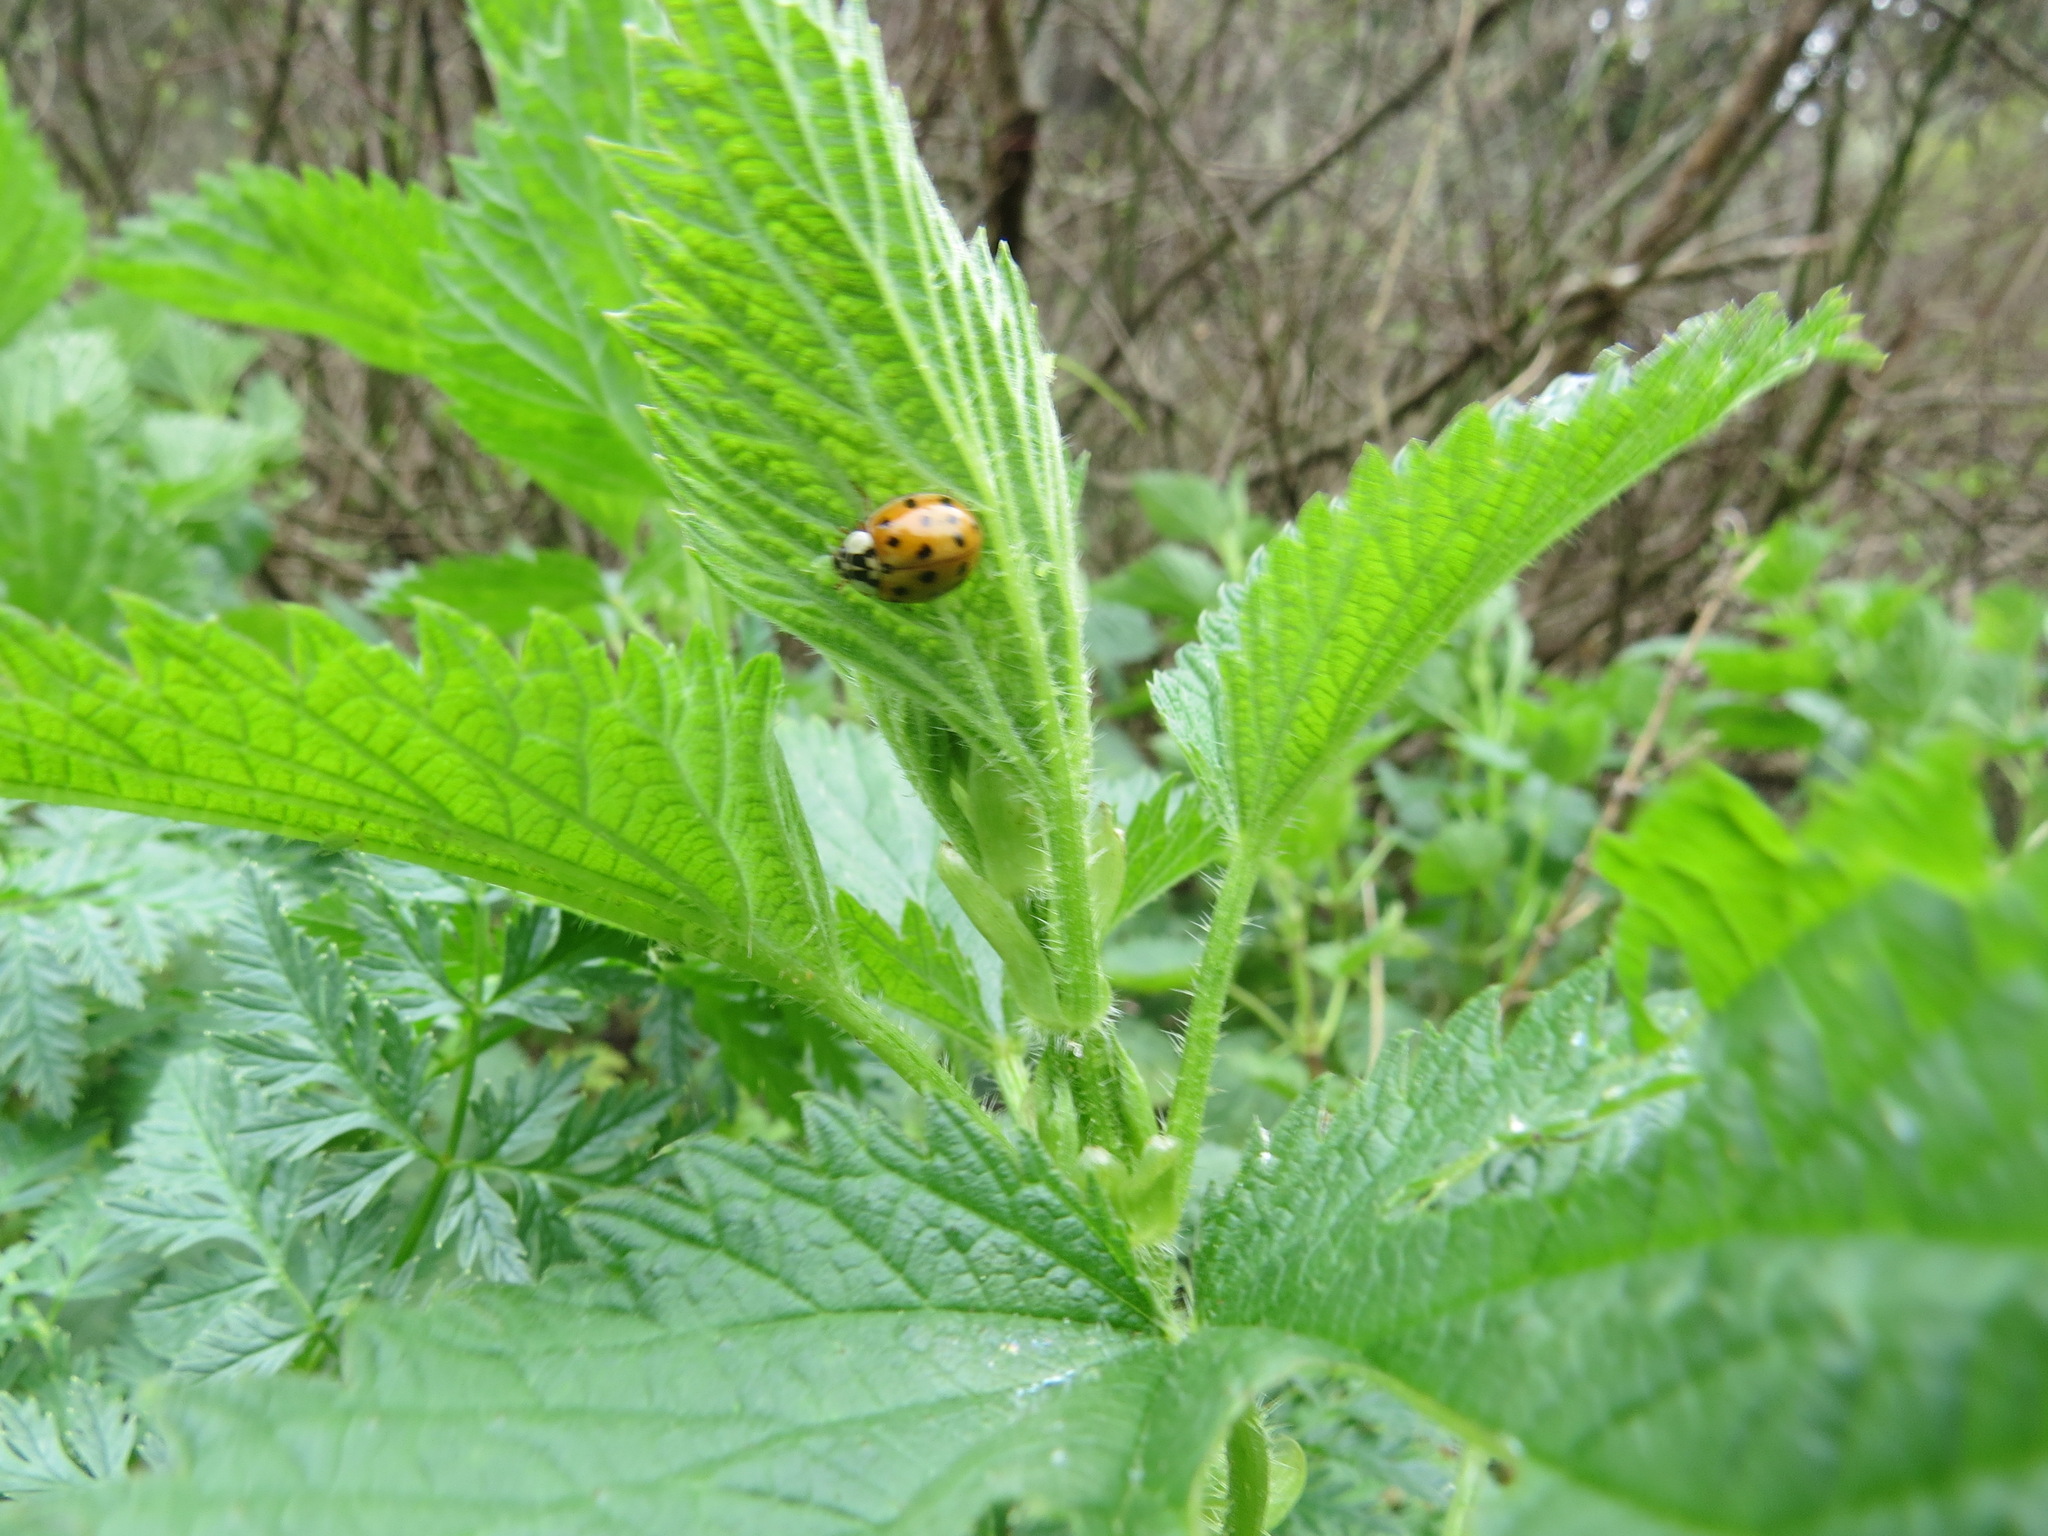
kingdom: Animalia
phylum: Arthropoda
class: Insecta
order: Coleoptera
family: Coccinellidae
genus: Harmonia
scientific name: Harmonia axyridis
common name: Harlequin ladybird
